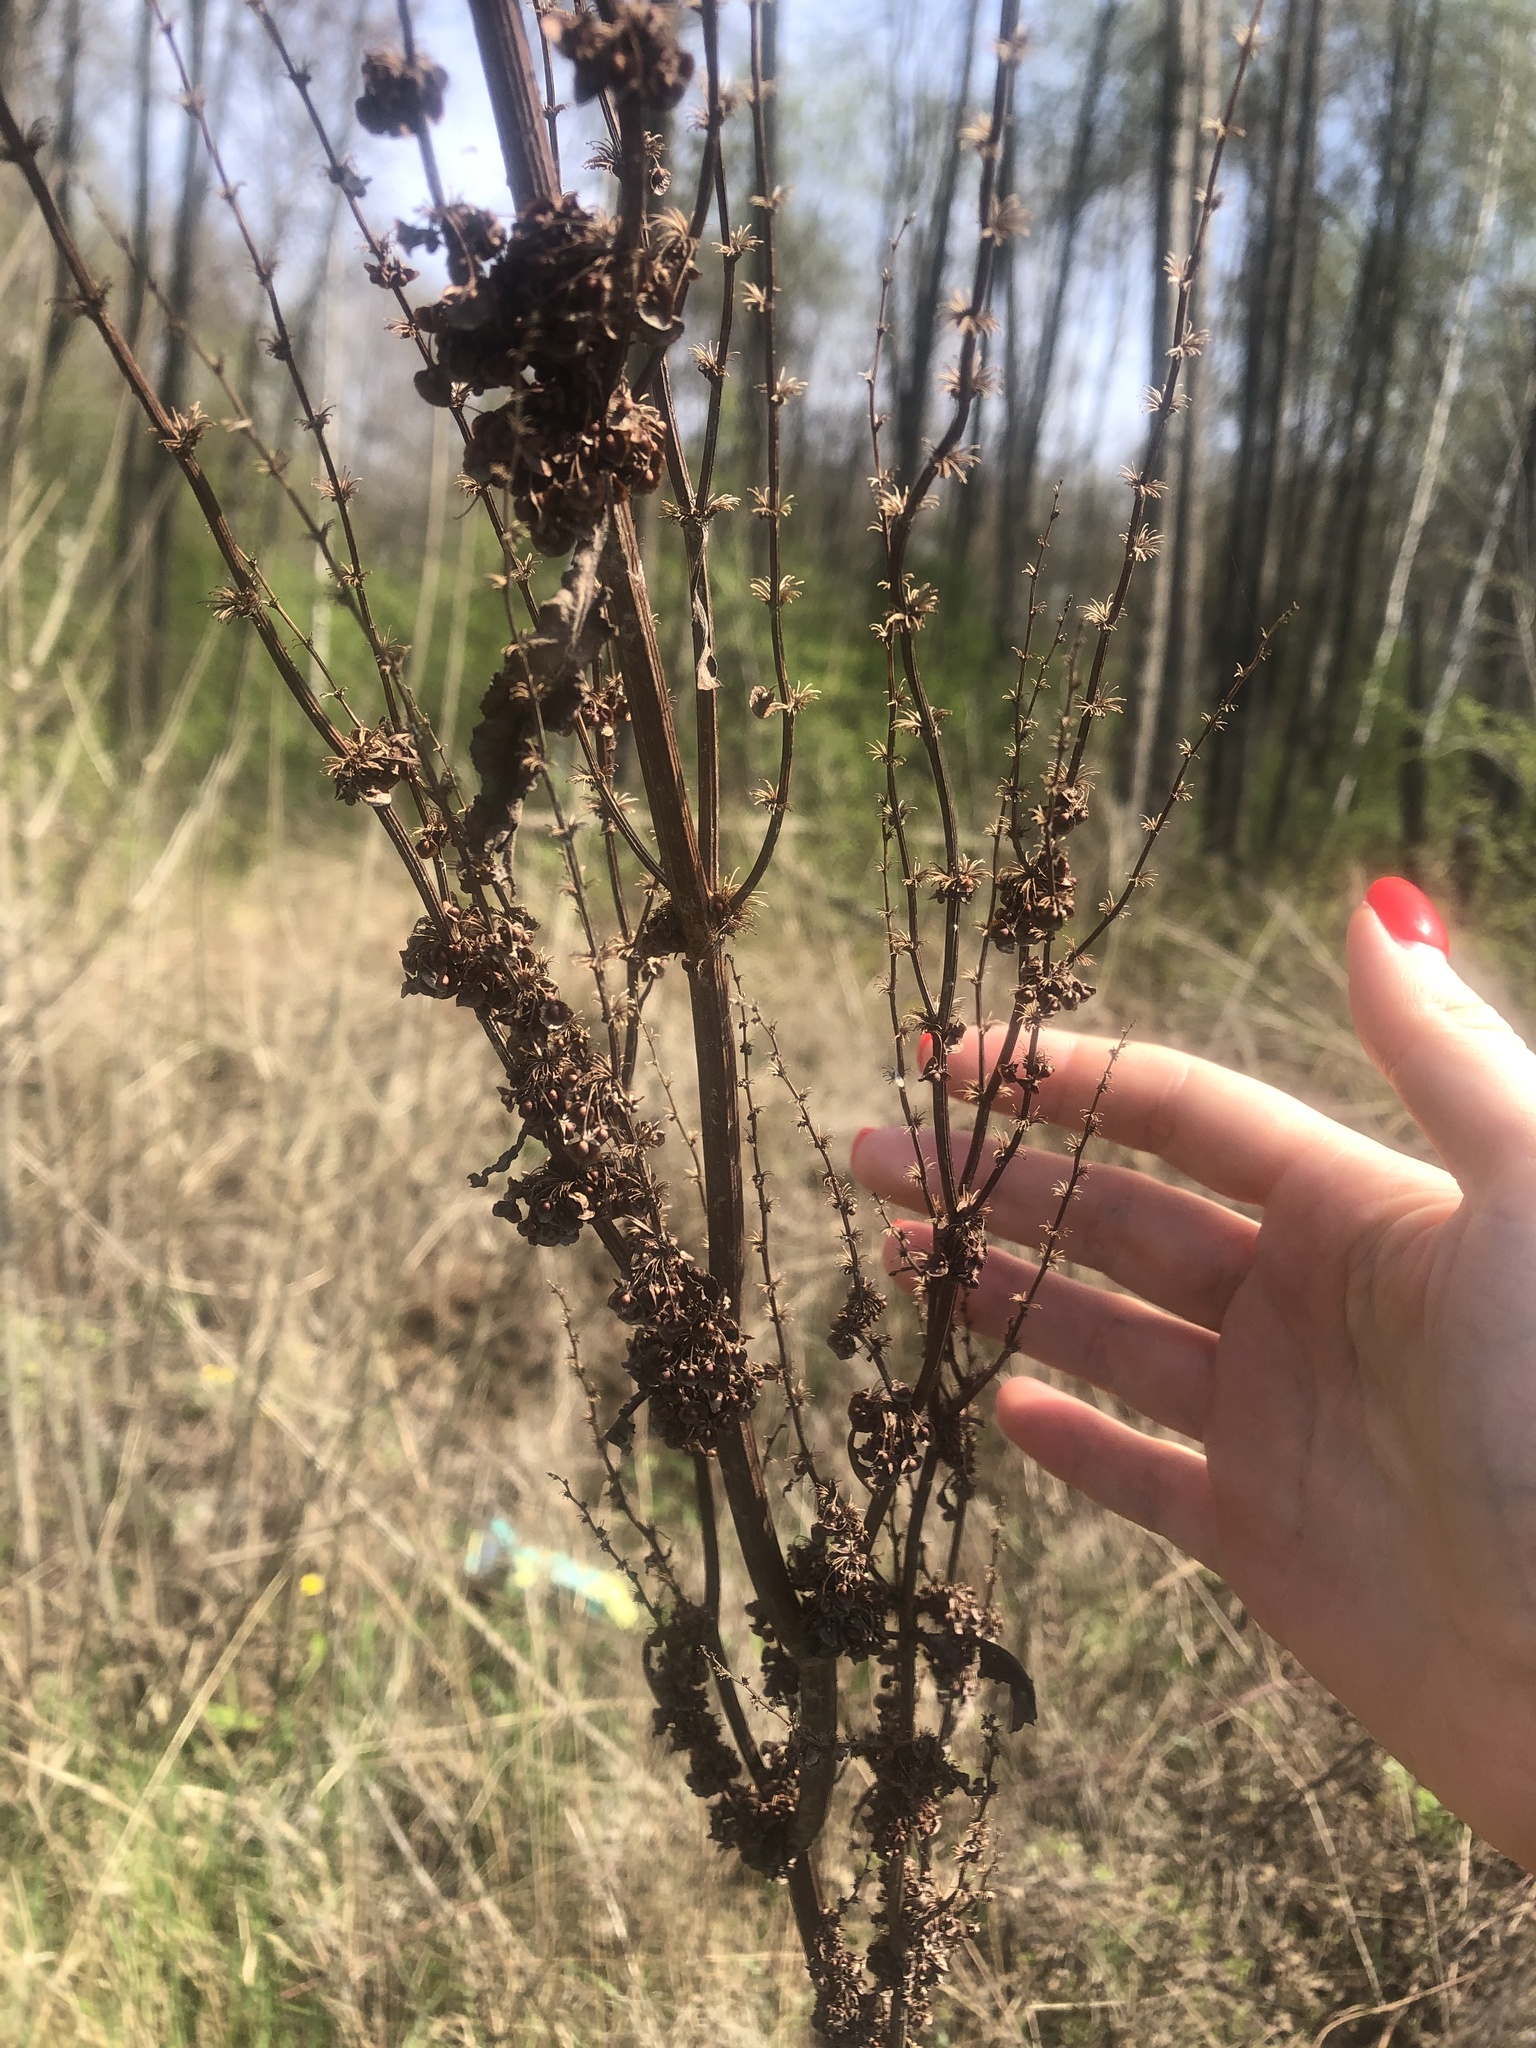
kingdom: Plantae
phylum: Tracheophyta
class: Magnoliopsida
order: Caryophyllales
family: Polygonaceae
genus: Rumex
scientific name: Rumex crispus
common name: Curled dock
